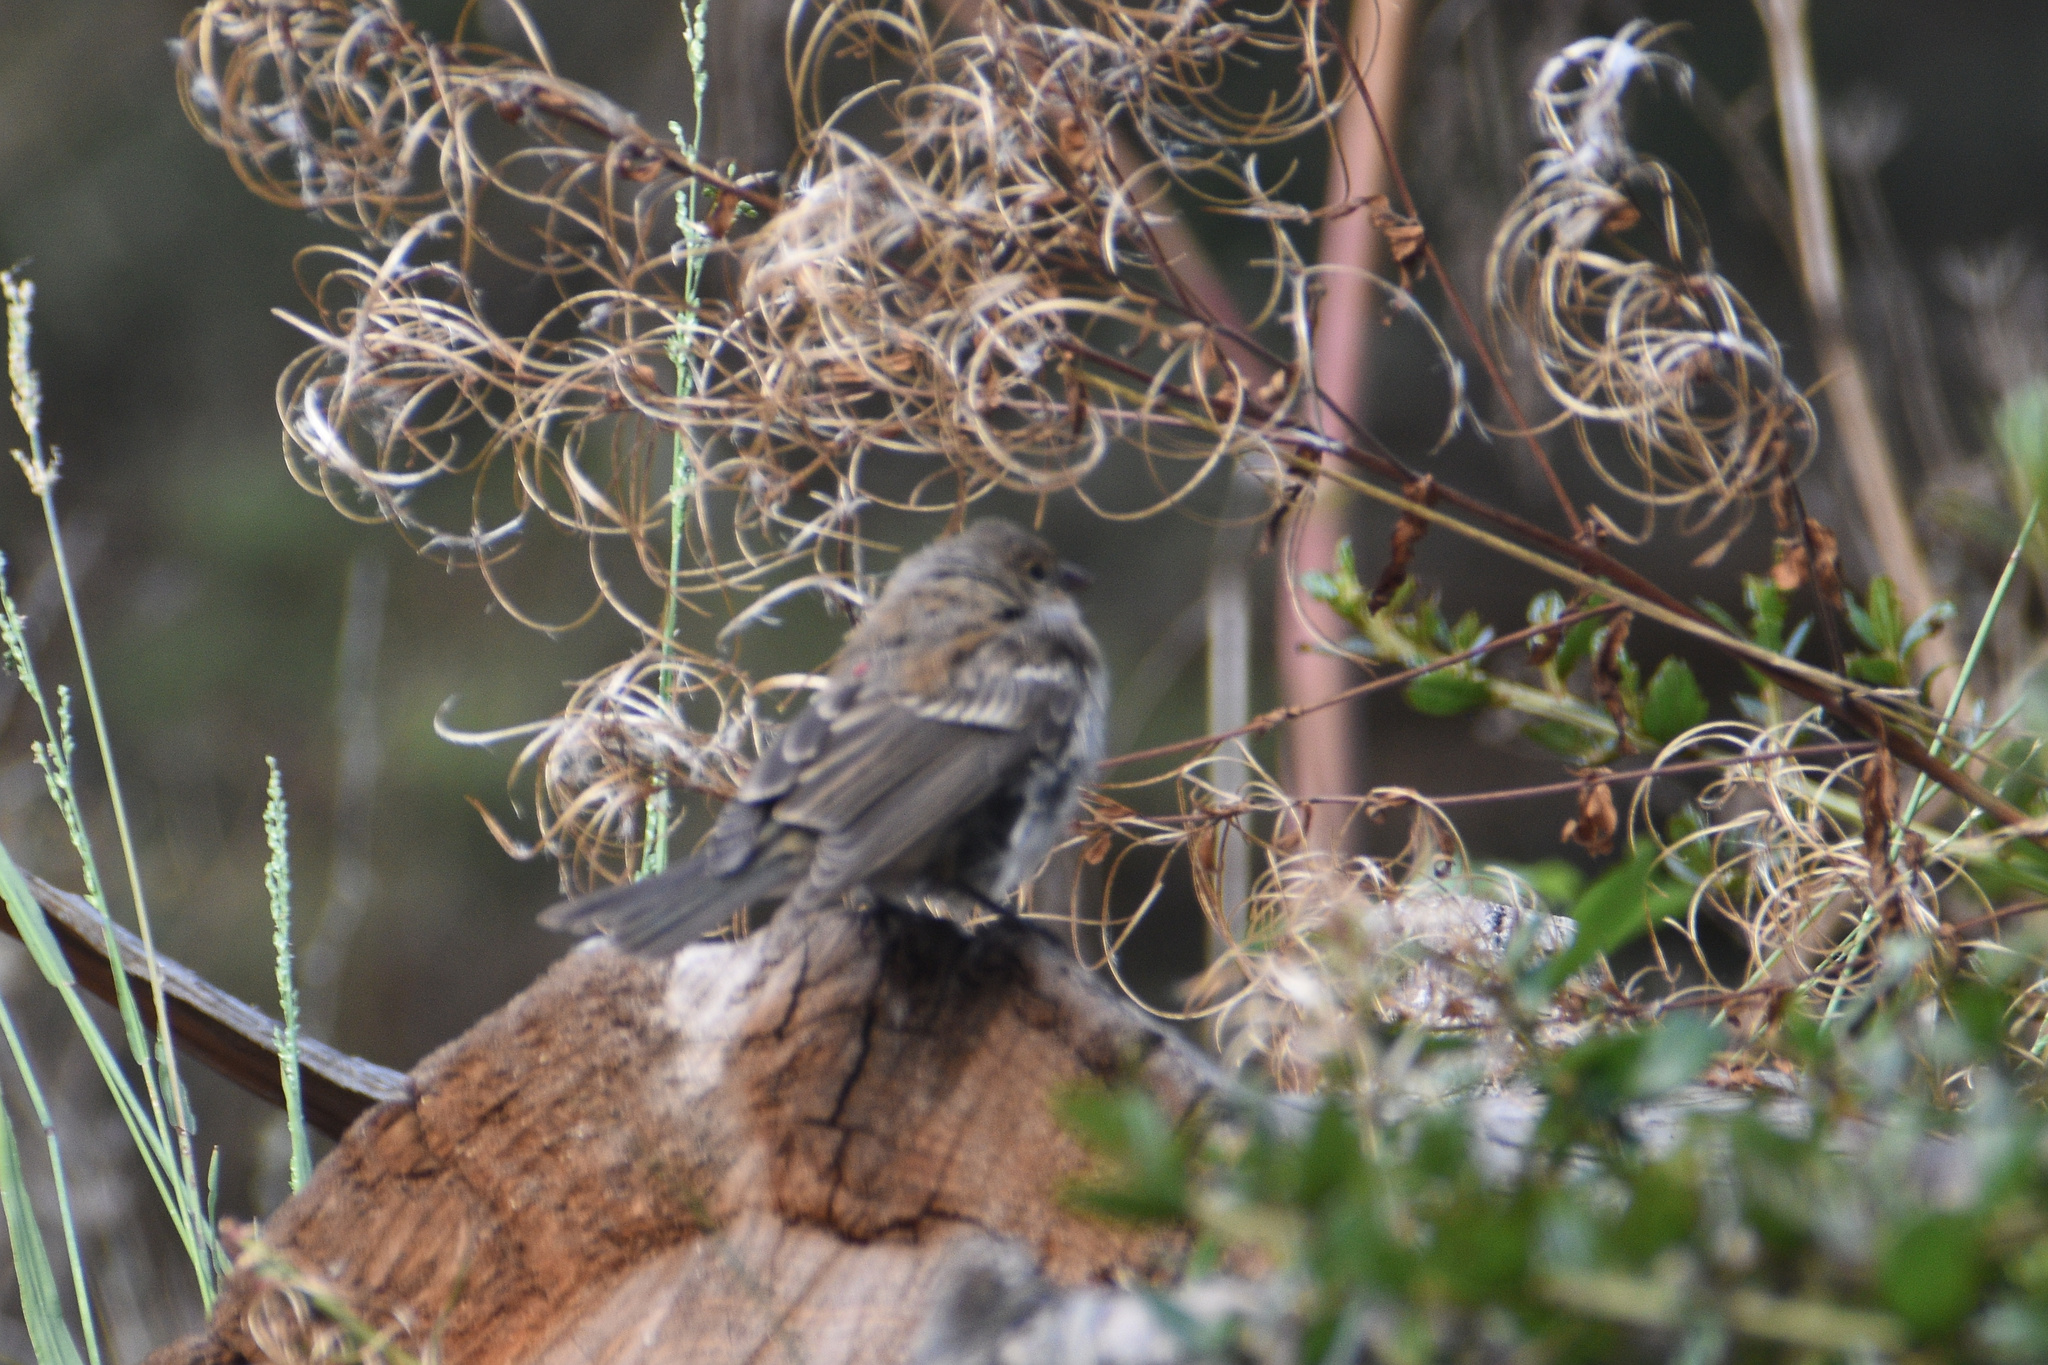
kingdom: Animalia
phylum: Chordata
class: Aves
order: Passeriformes
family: Cardinalidae
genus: Passerina
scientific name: Passerina amoena
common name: Lazuli bunting
